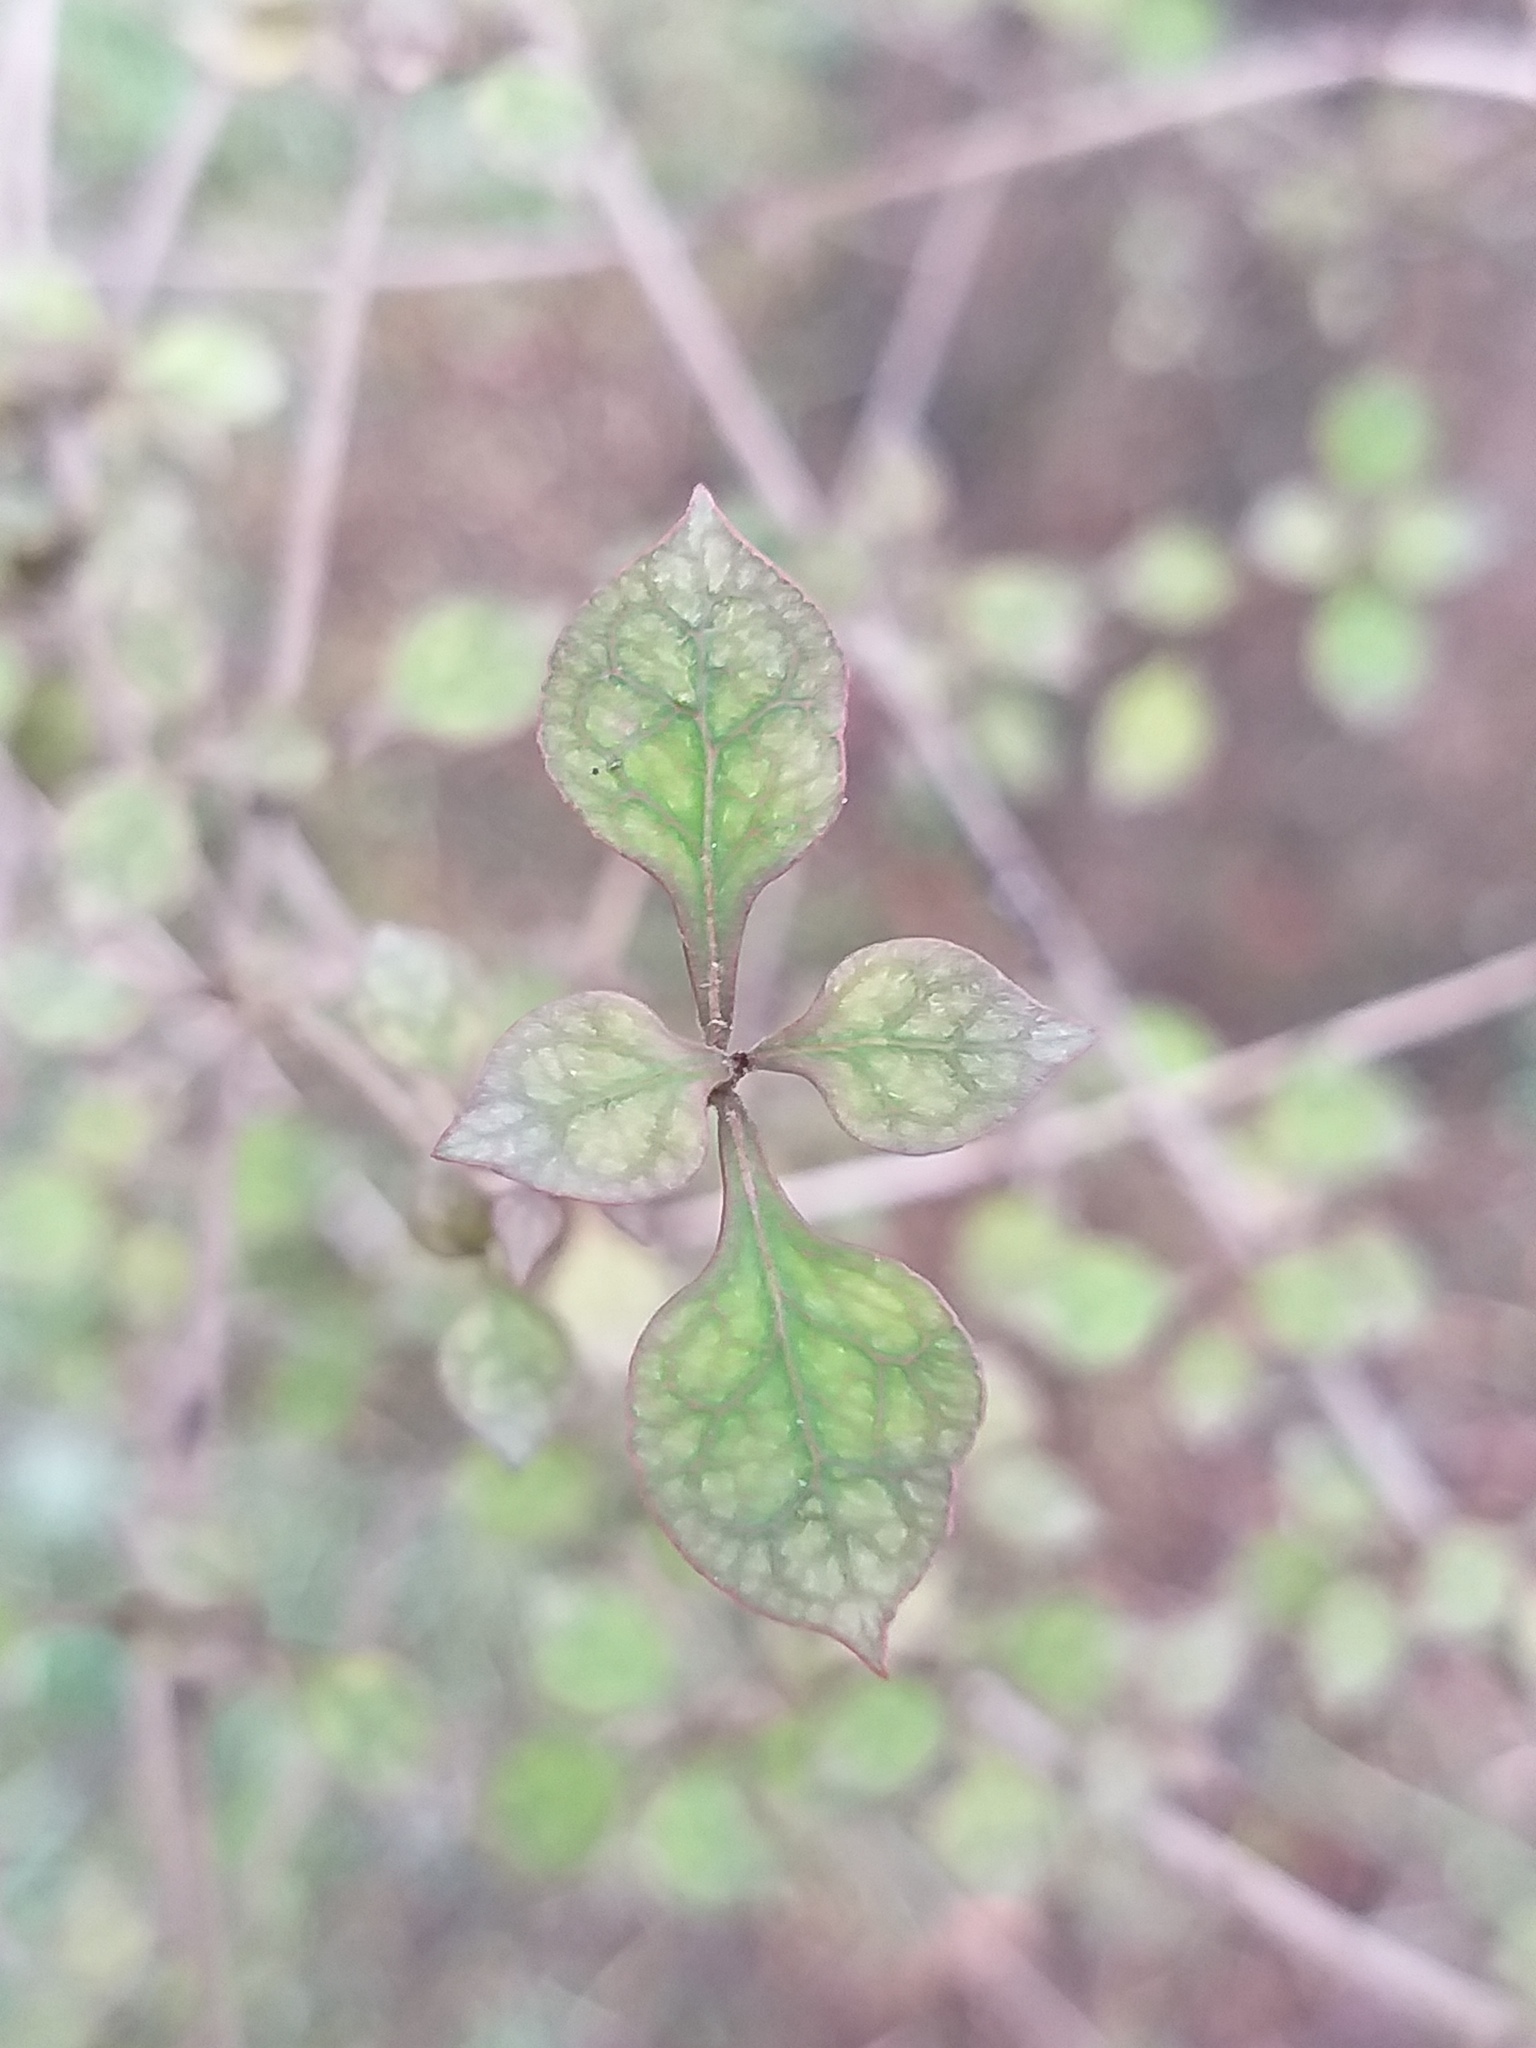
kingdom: Plantae
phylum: Tracheophyta
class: Magnoliopsida
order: Santalales
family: Viscaceae
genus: Korthalsella
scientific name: Korthalsella lindsayi
